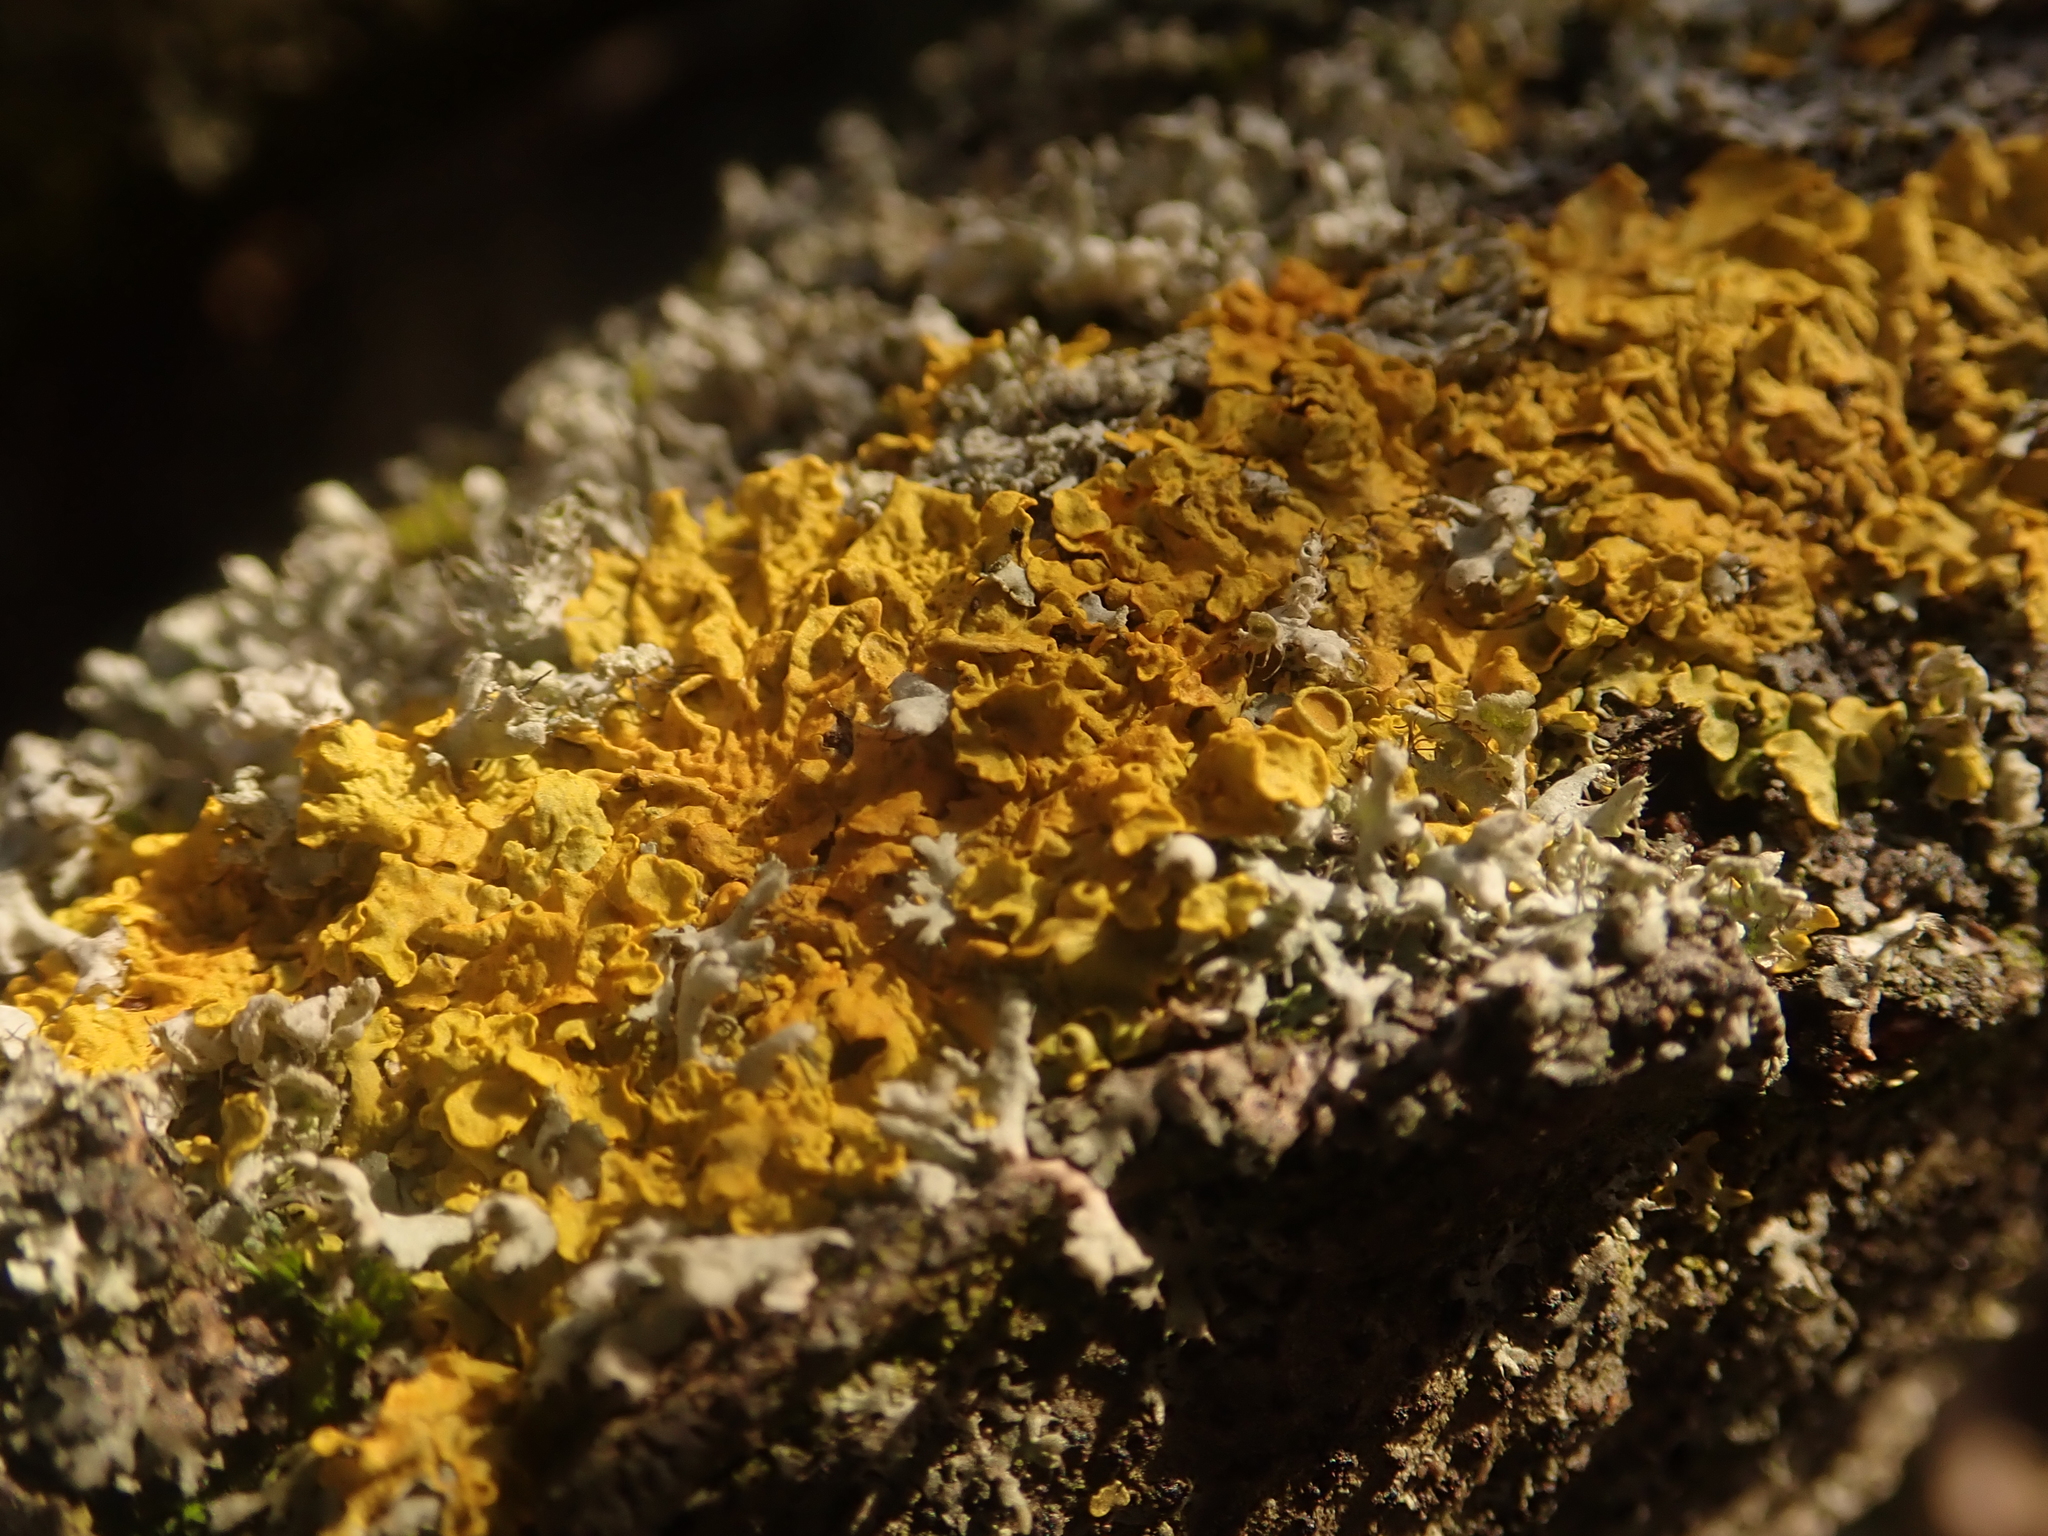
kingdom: Fungi
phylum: Ascomycota
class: Lecanoromycetes
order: Teloschistales
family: Teloschistaceae
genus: Xanthoria
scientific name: Xanthoria parietina
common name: Common orange lichen
